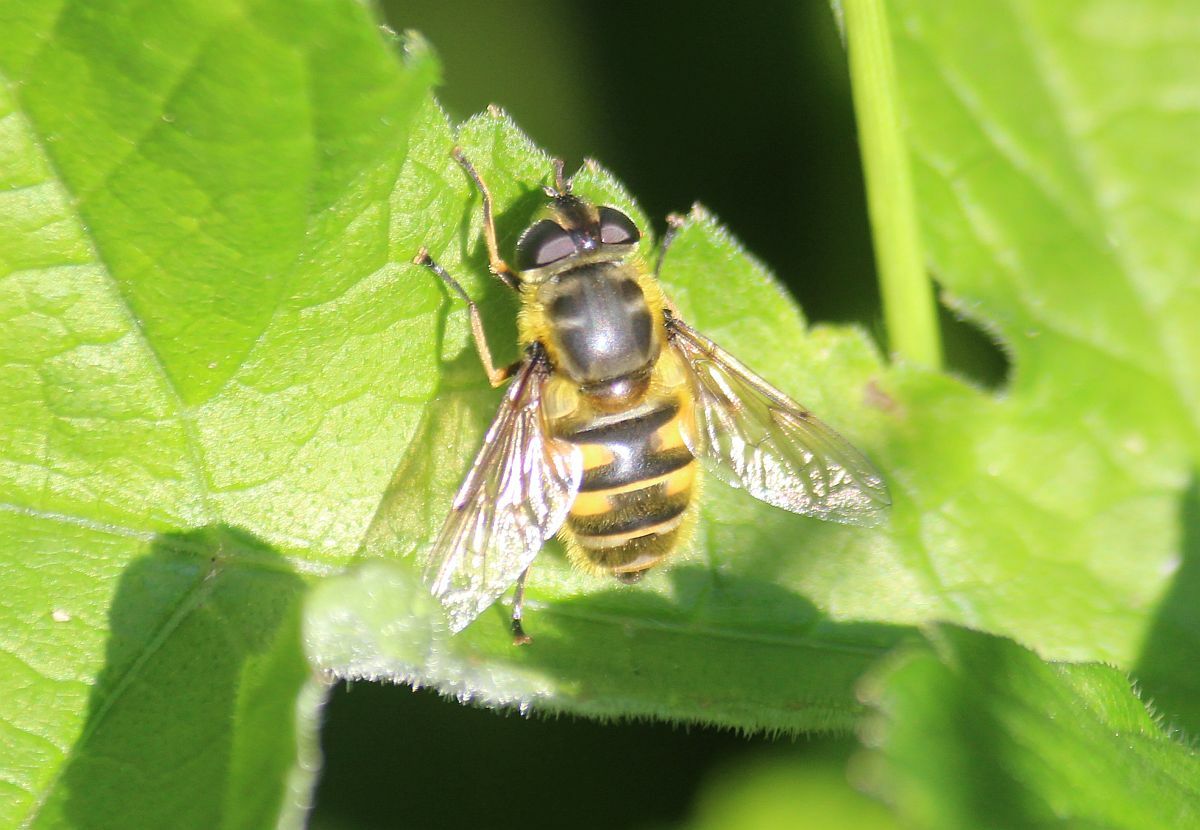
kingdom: Animalia
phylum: Arthropoda
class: Insecta
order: Diptera
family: Syrphidae
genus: Myathropa
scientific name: Myathropa florea
